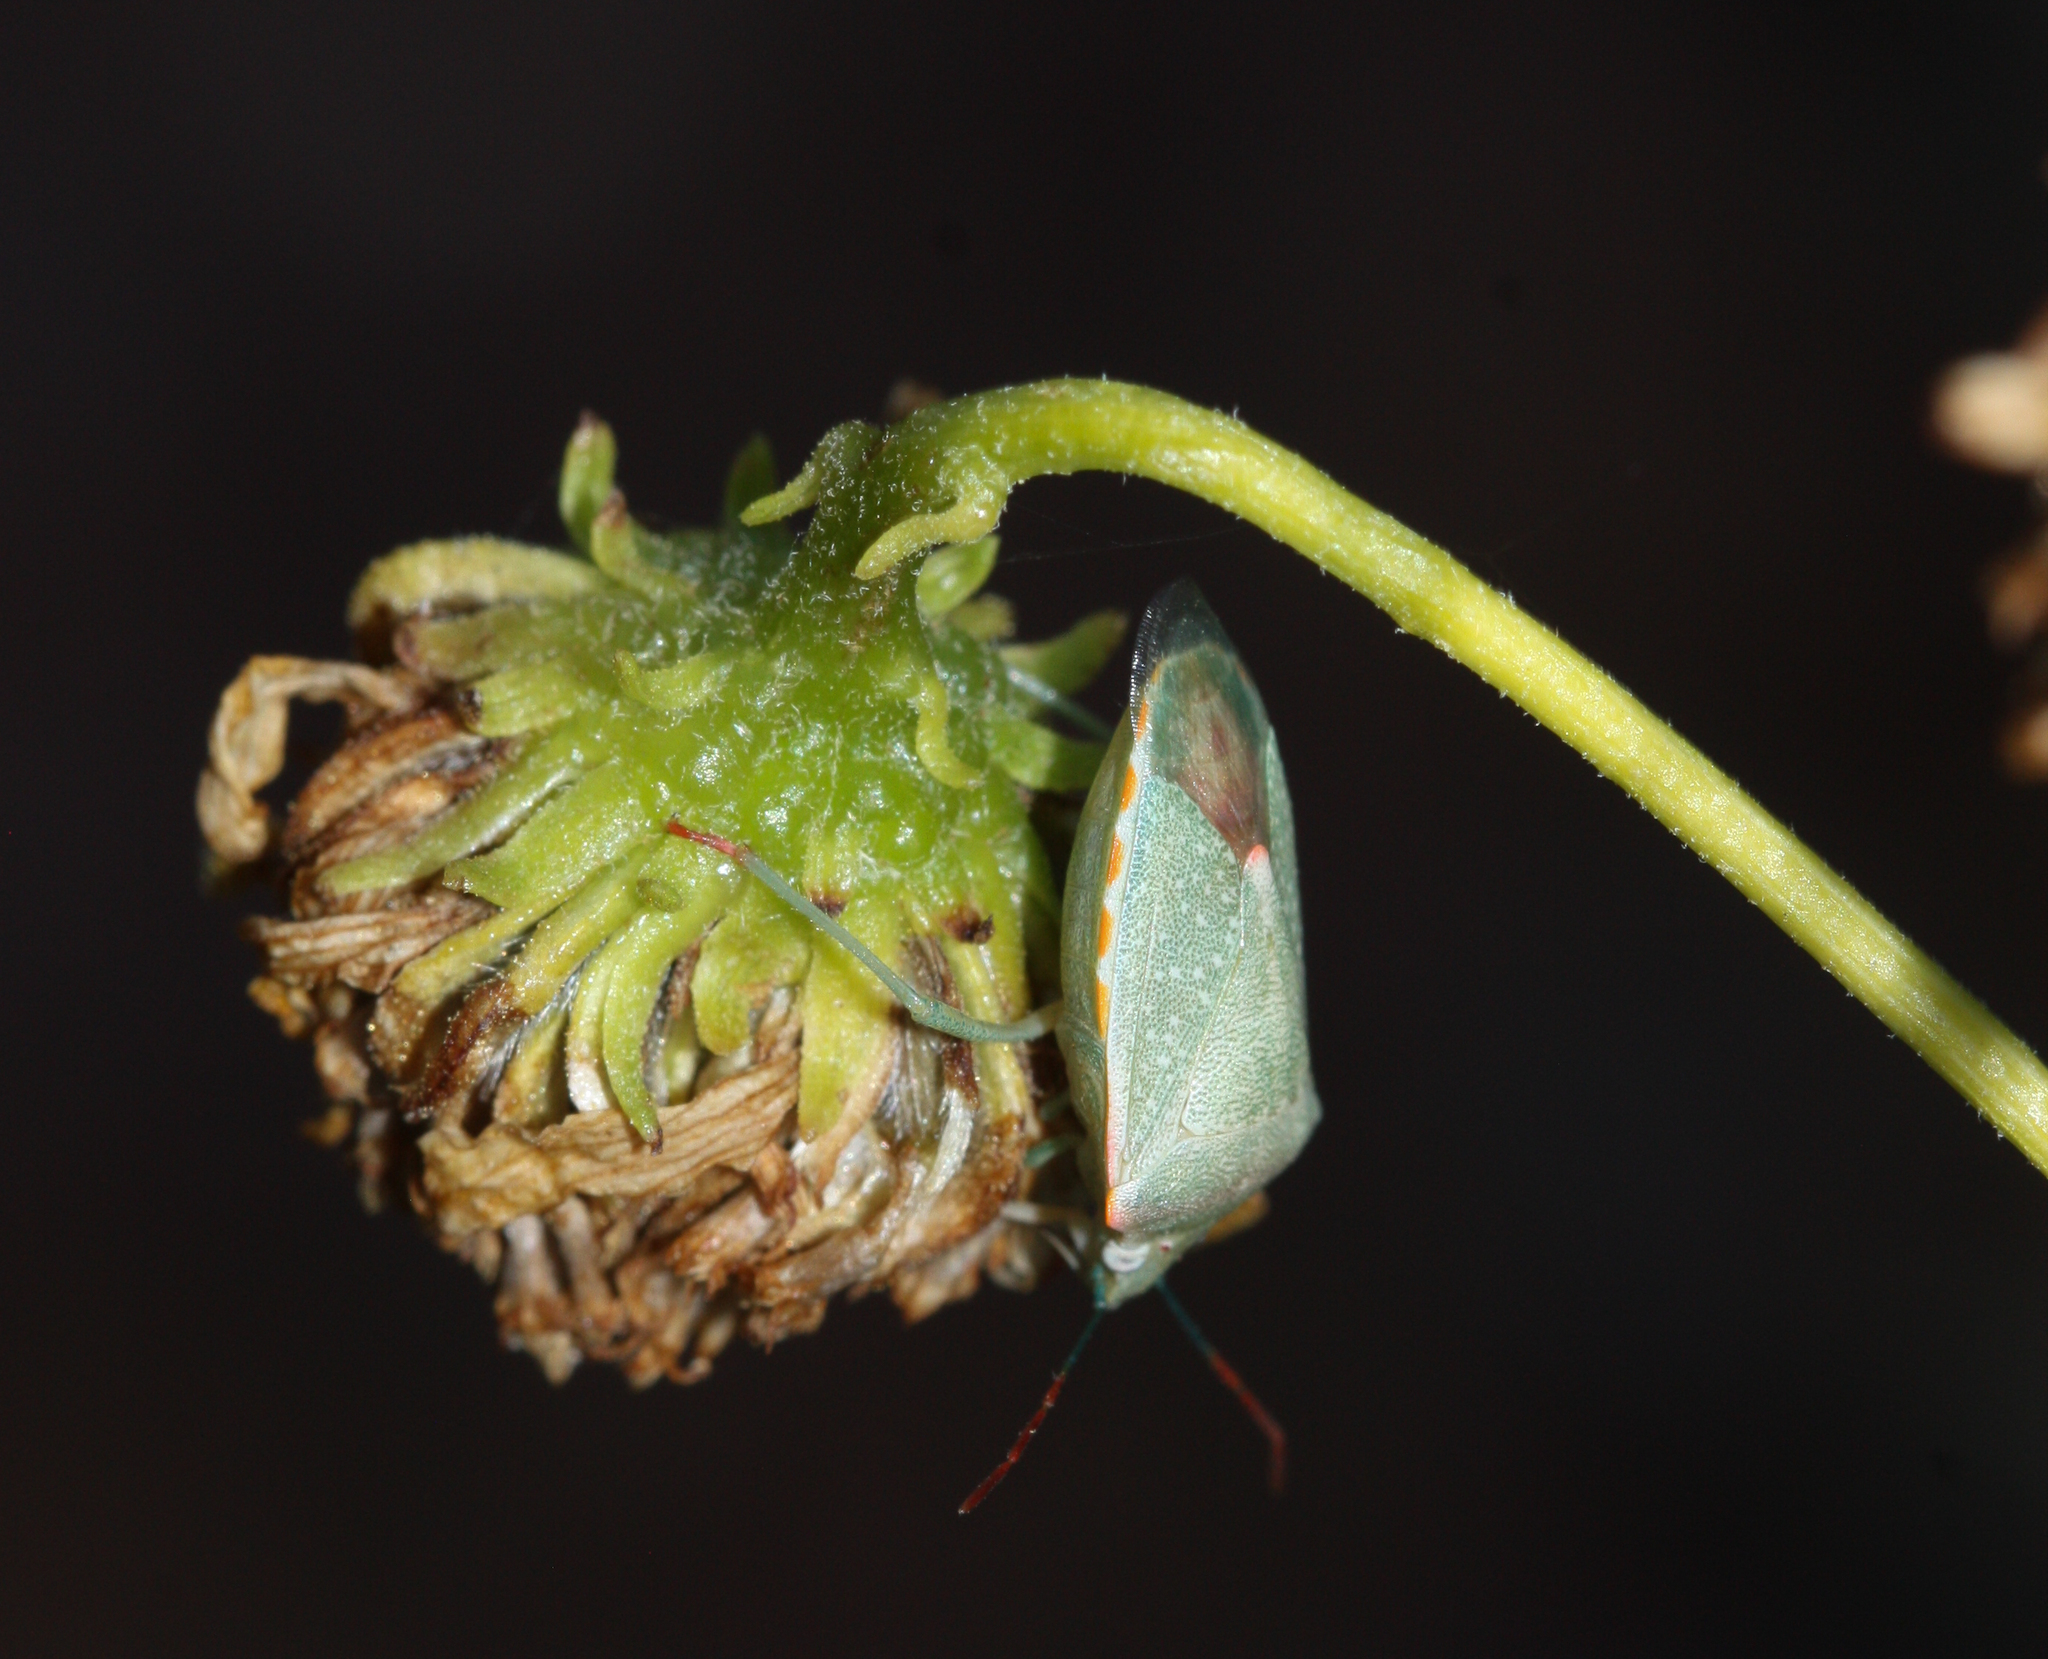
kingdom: Animalia
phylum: Arthropoda
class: Insecta
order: Hemiptera
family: Pentatomidae
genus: Thyanta
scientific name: Thyanta accerra
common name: Stink bug
